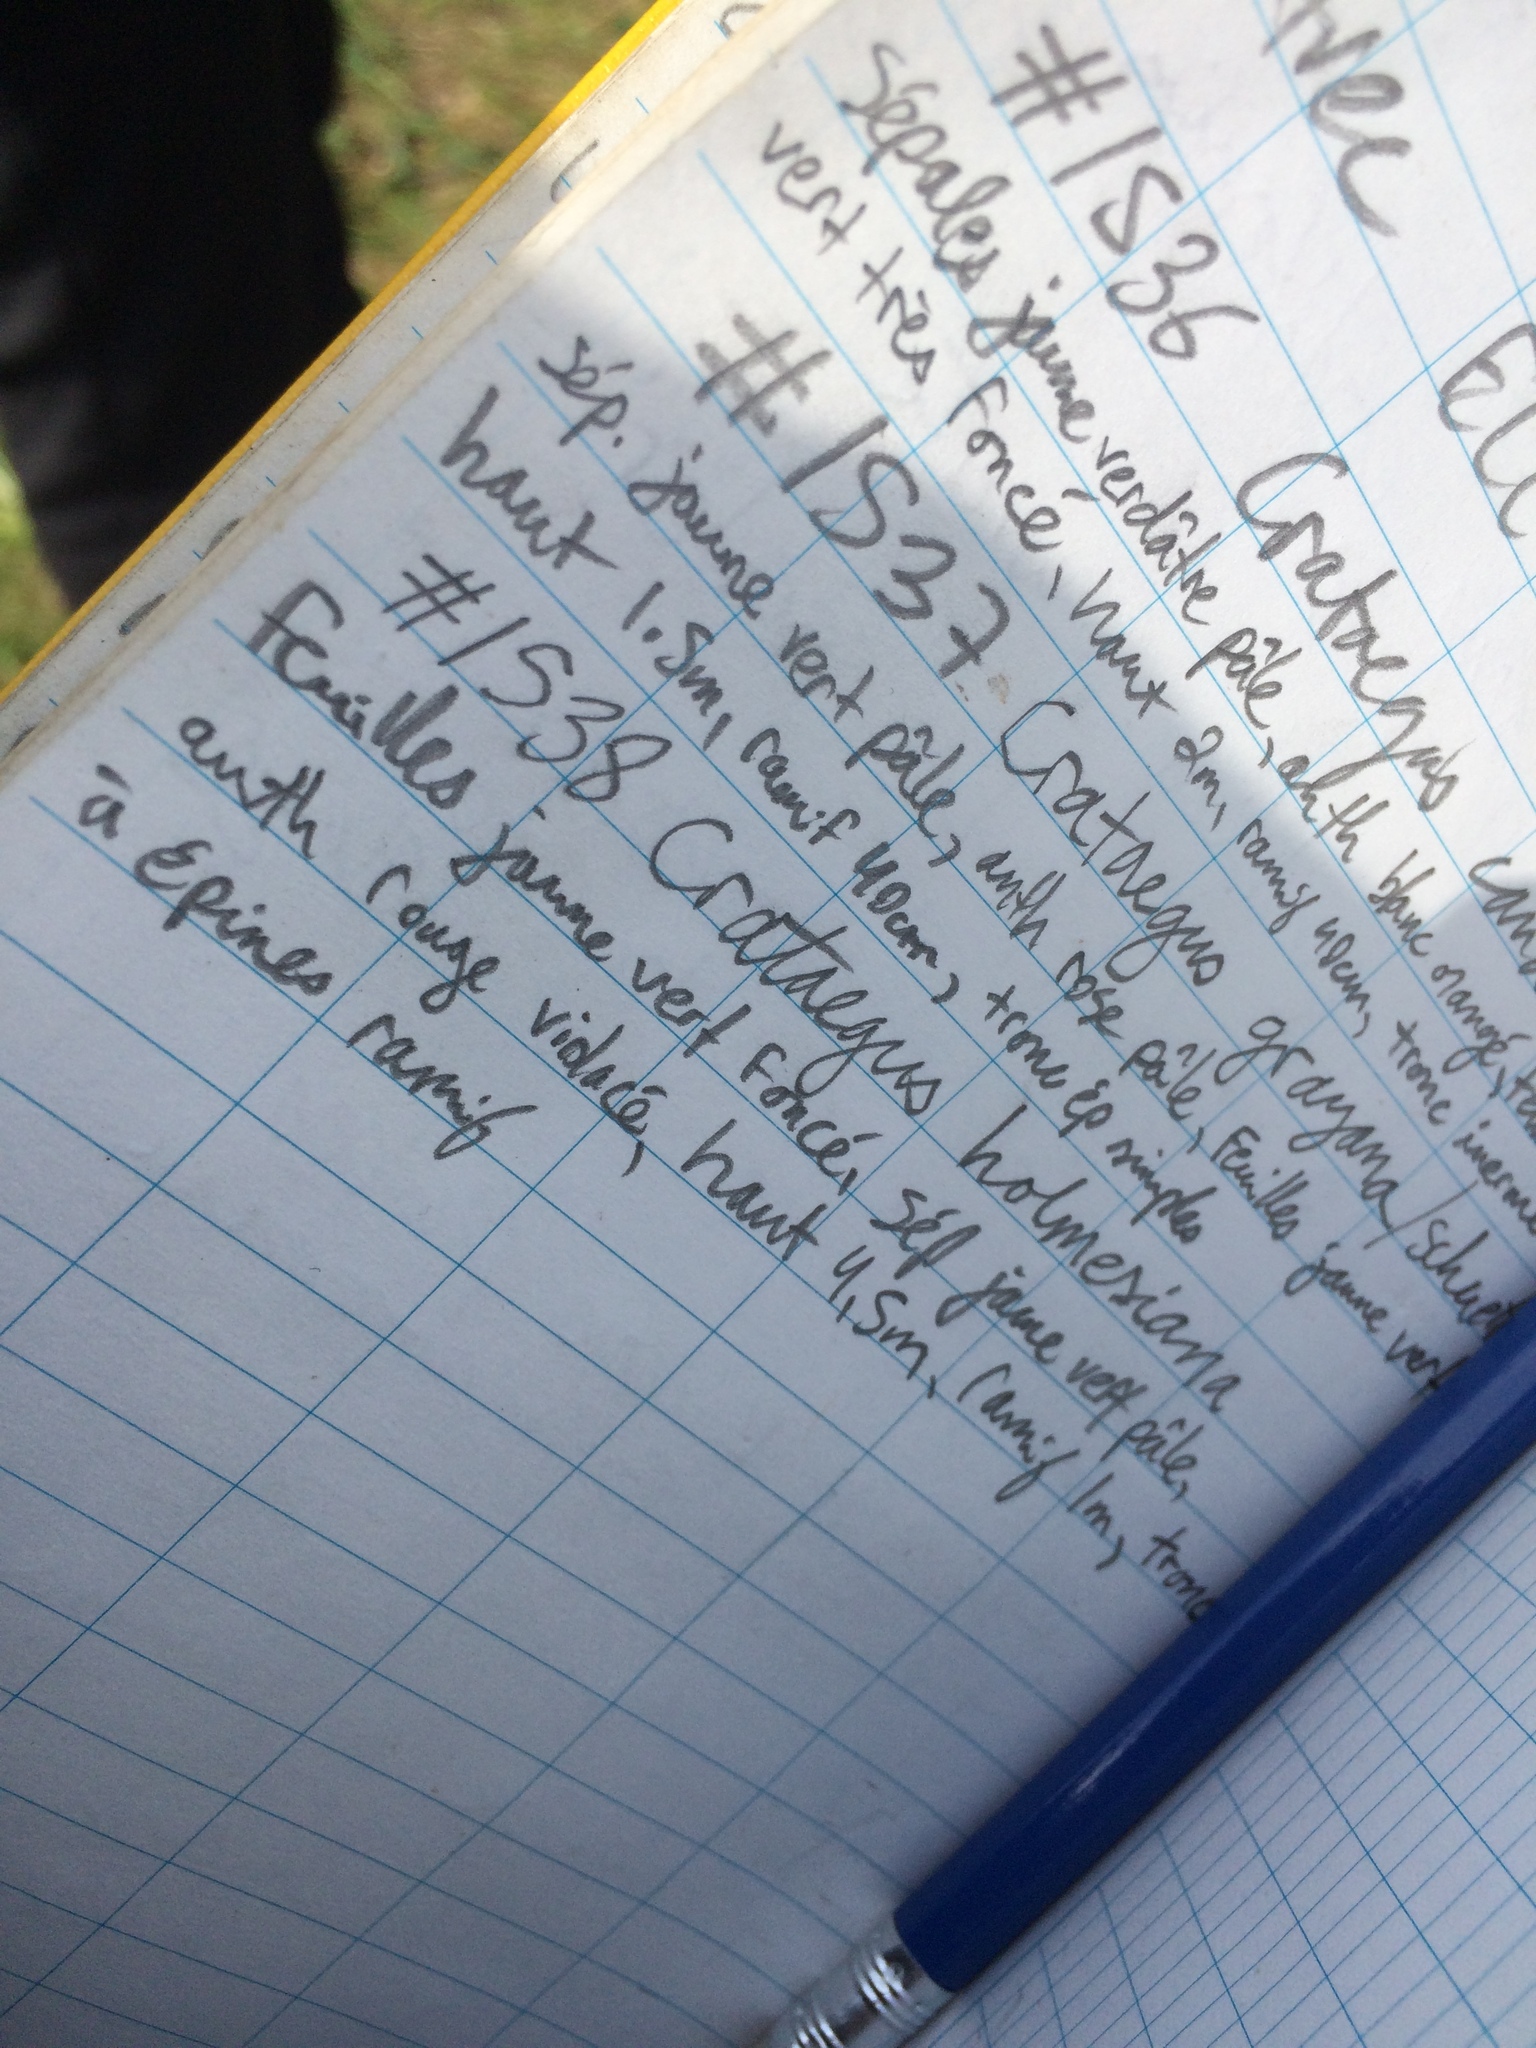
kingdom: Plantae
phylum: Tracheophyta
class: Magnoliopsida
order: Rosales
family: Rosaceae
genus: Crataegus
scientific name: Crataegus holmesiana
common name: Holmes' hawthorn
